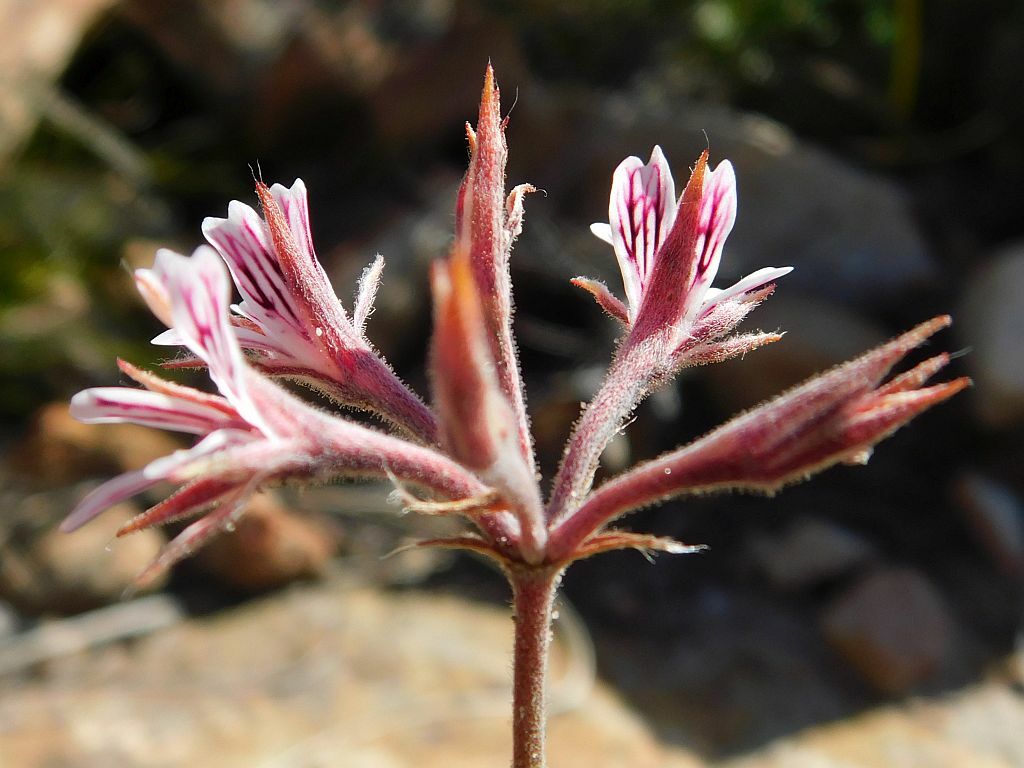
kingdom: Plantae
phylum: Tracheophyta
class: Magnoliopsida
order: Geraniales
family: Geraniaceae
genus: Pelargonium
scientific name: Pelargonium caledonicum
